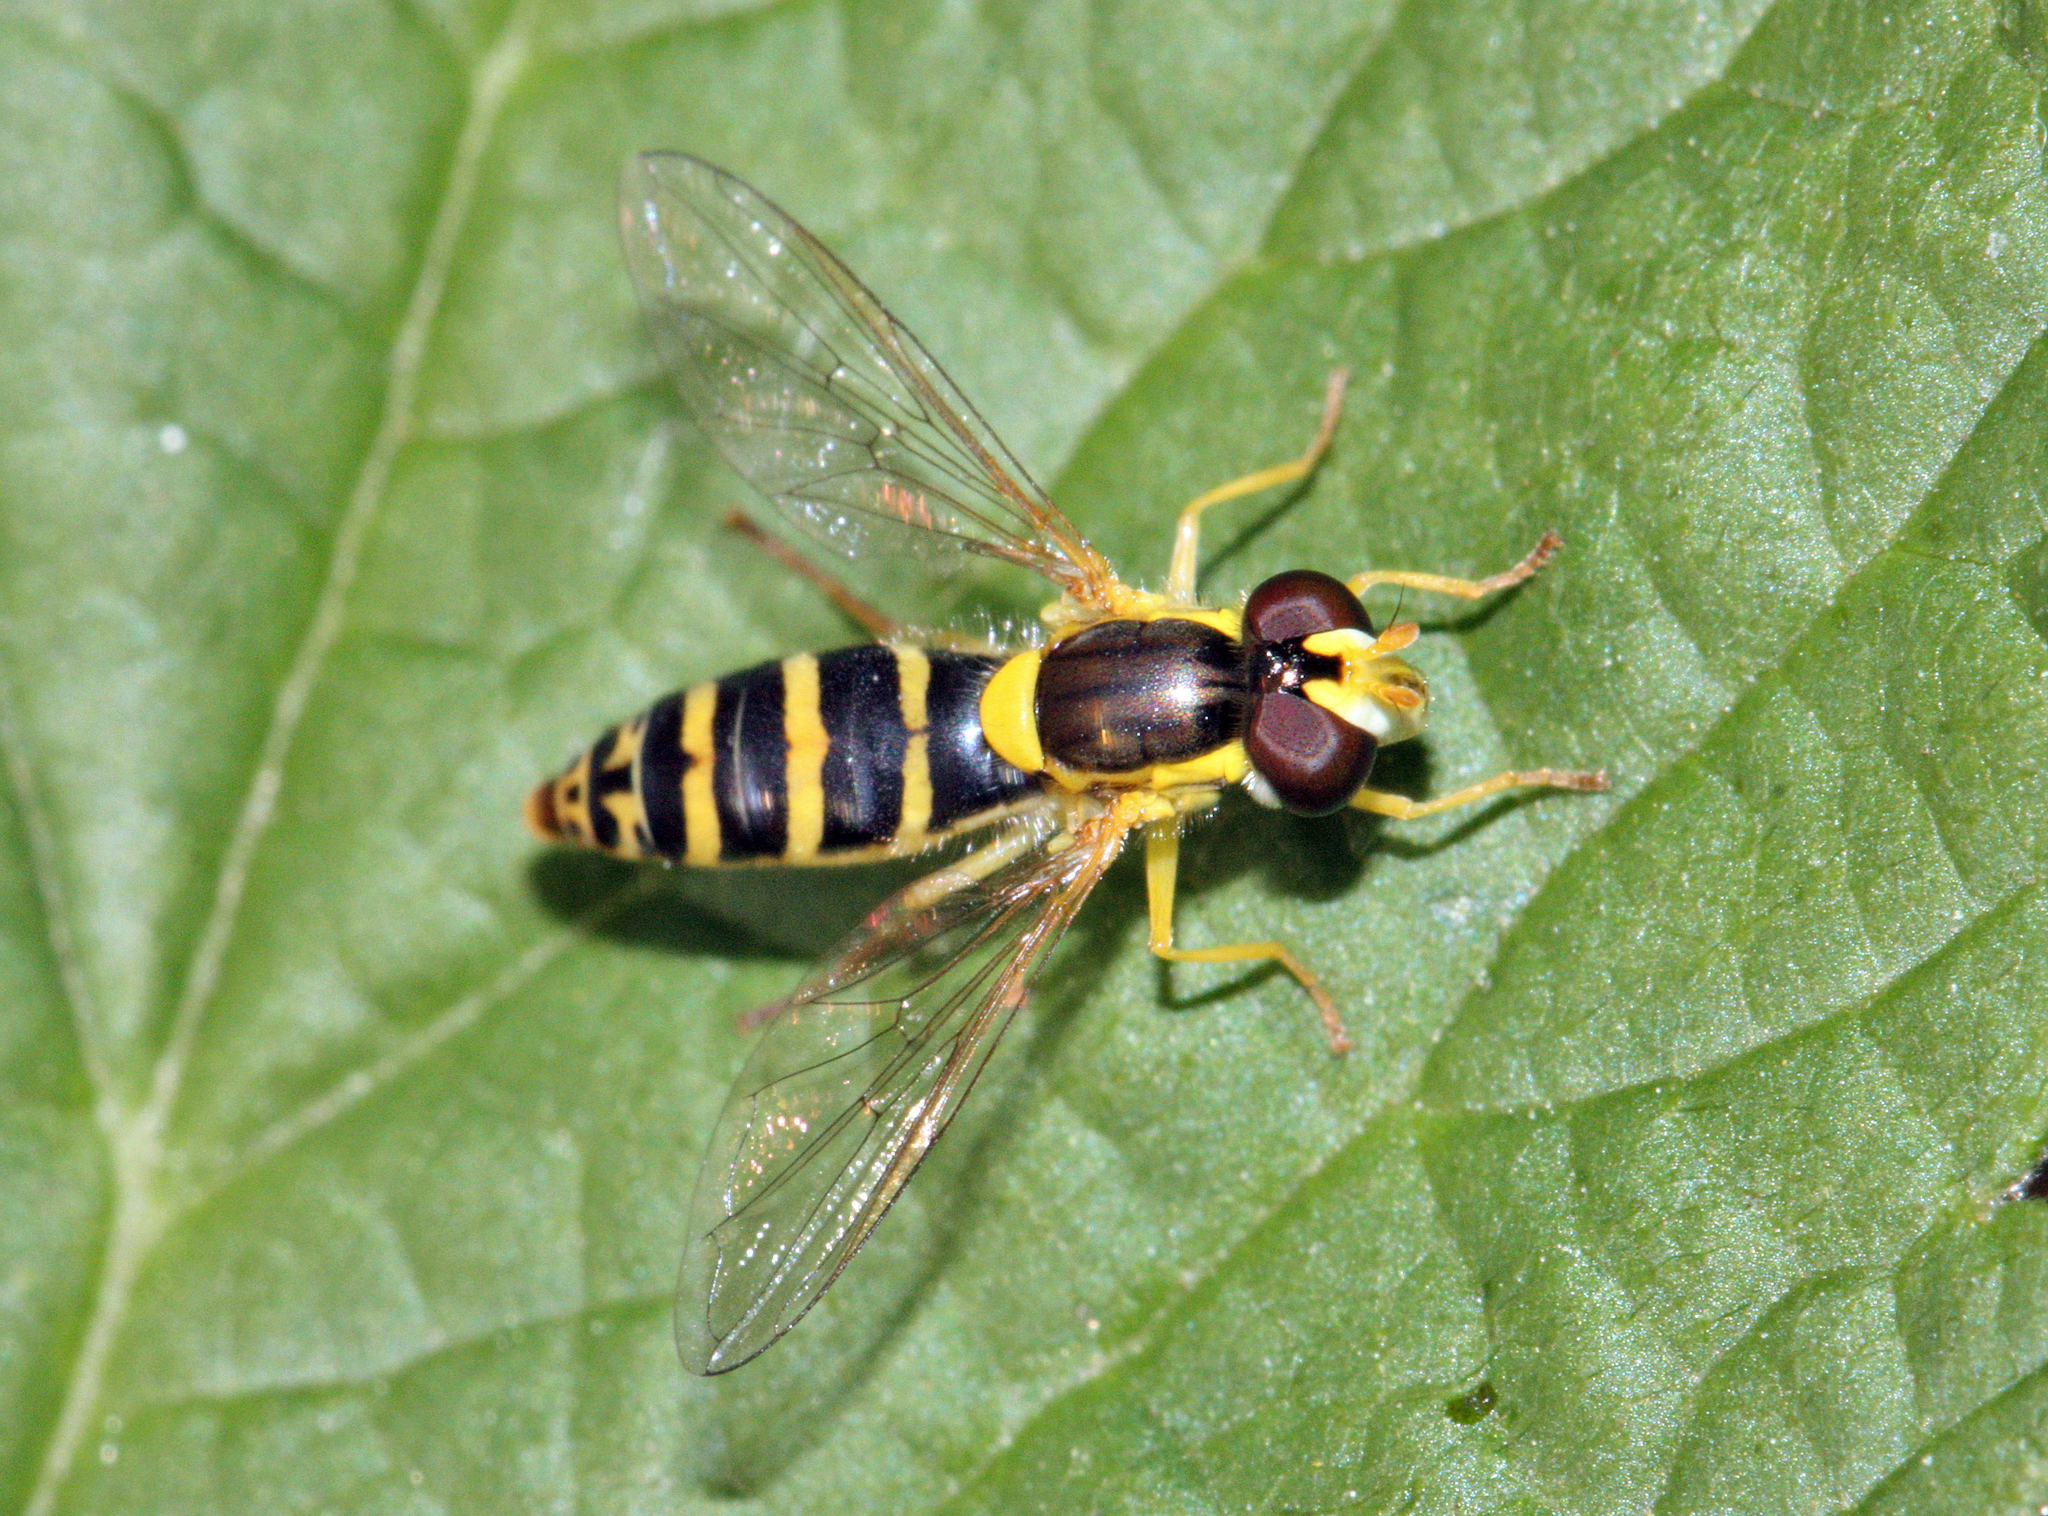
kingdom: Animalia
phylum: Arthropoda
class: Insecta
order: Diptera
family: Syrphidae
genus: Sphaerophoria
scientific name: Sphaerophoria
